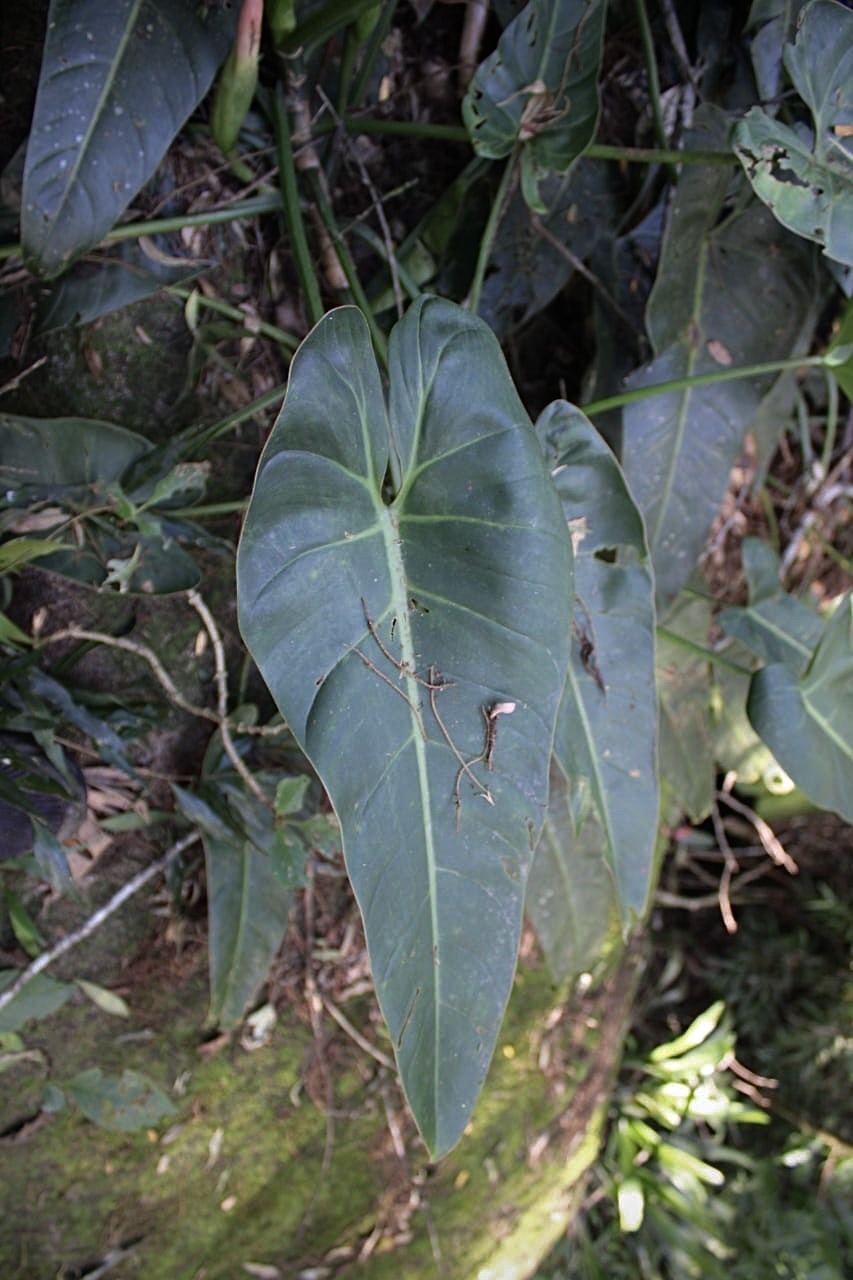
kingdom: Plantae
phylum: Tracheophyta
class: Liliopsida
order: Alismatales
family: Araceae
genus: Philodendron
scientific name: Philodendron vargealtense
